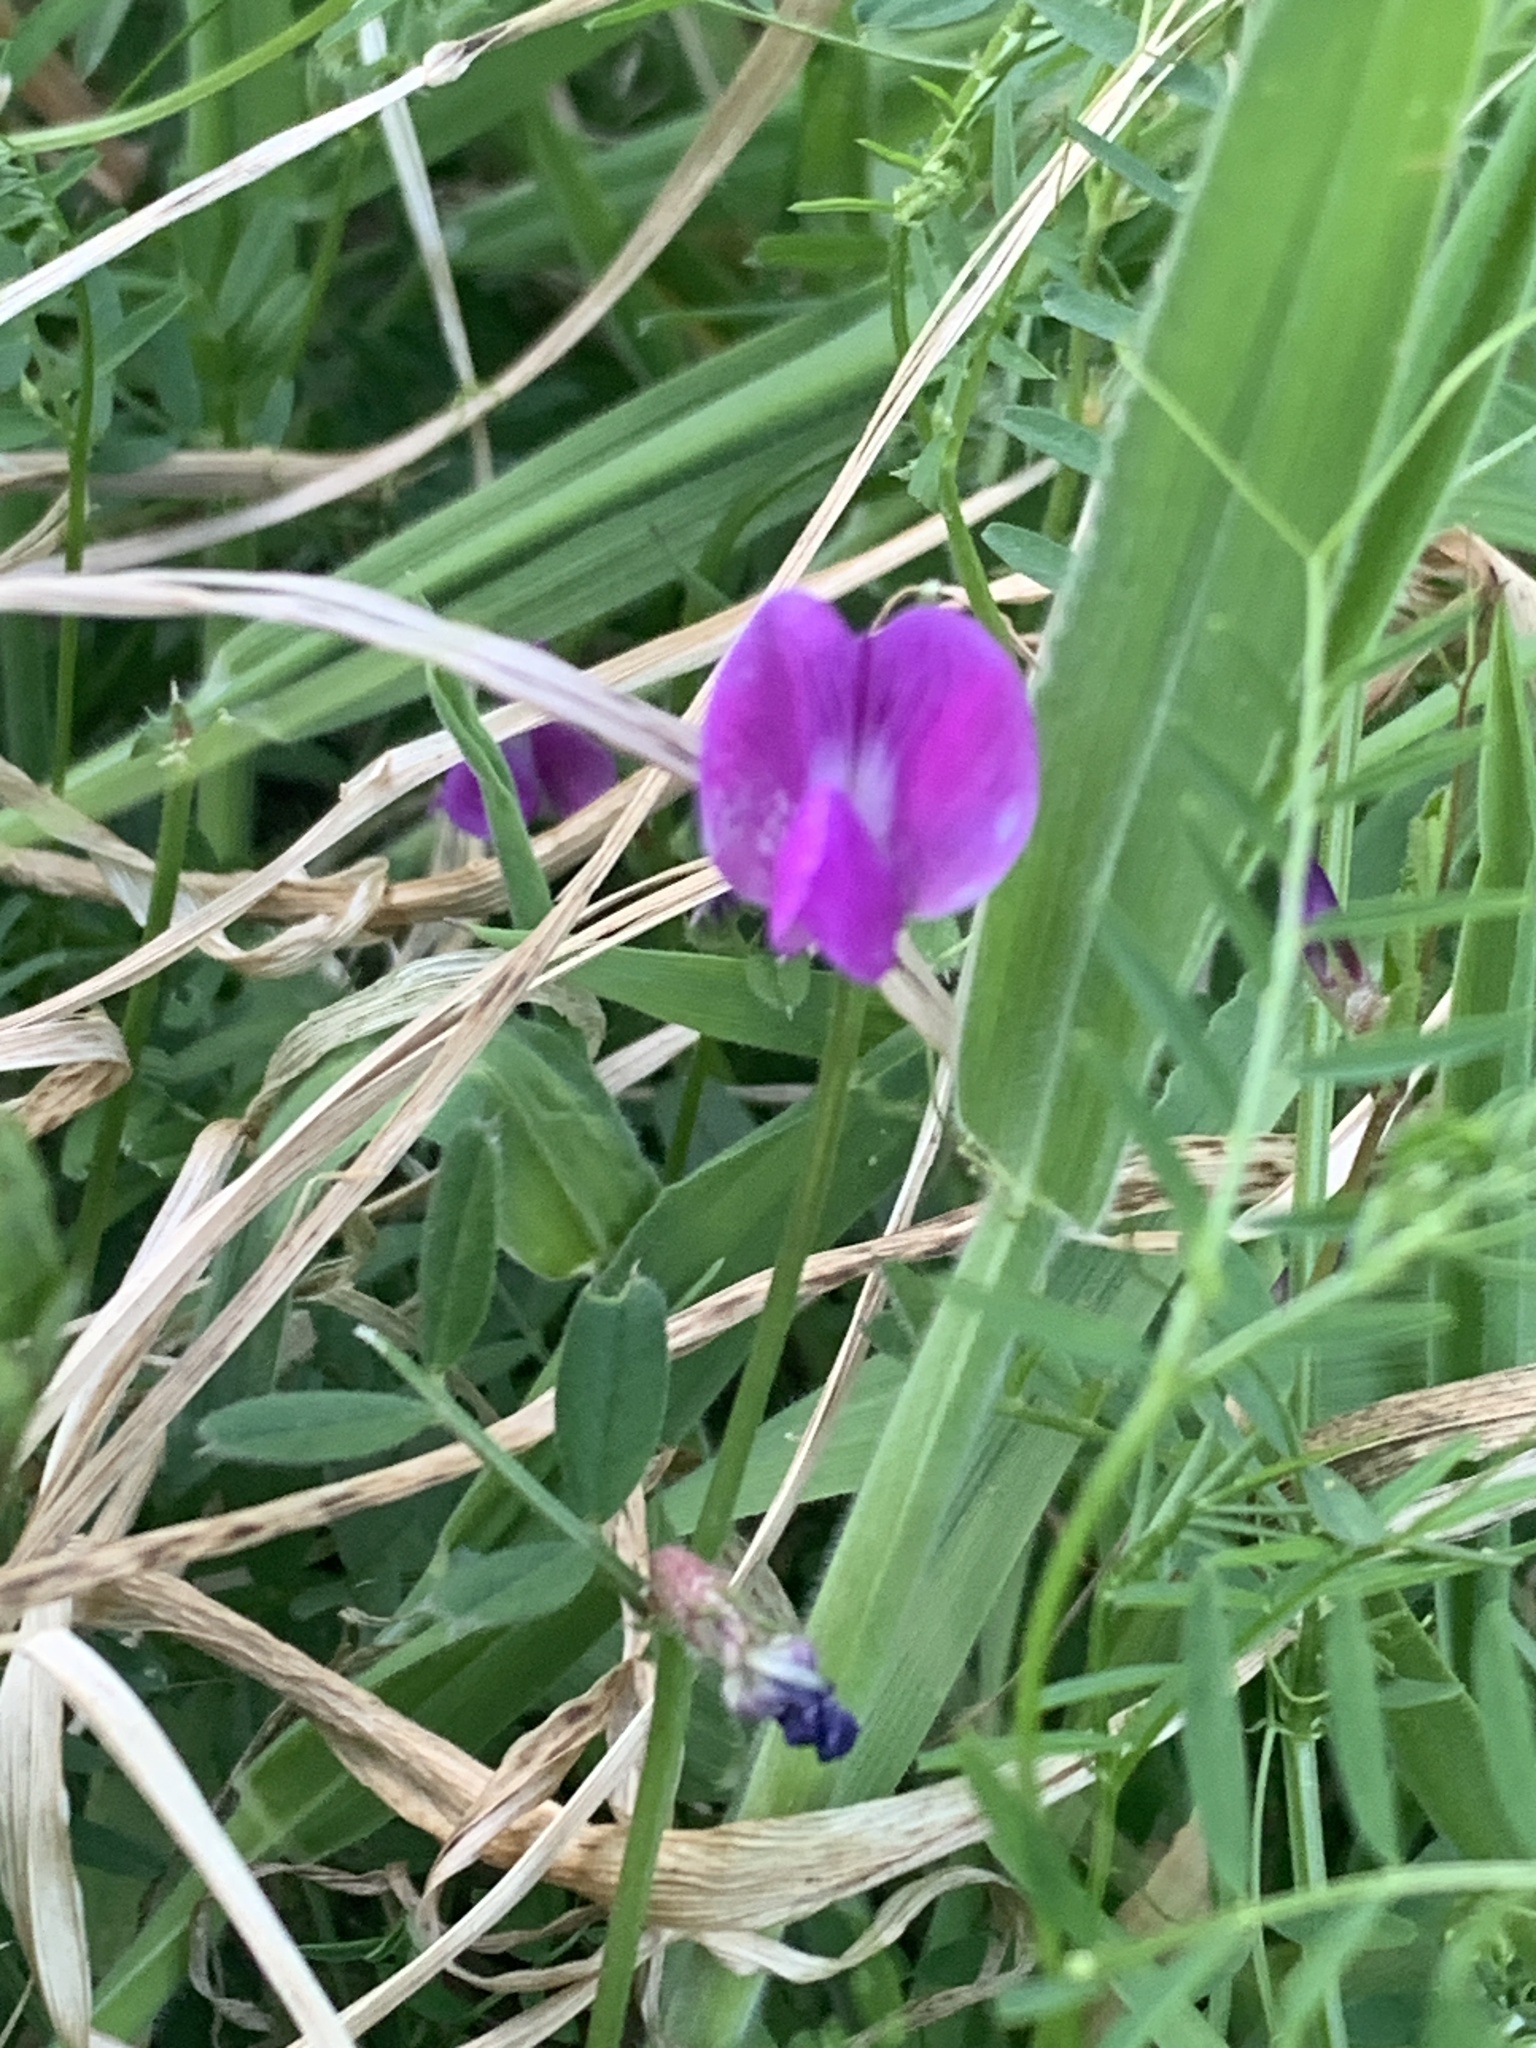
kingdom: Plantae
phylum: Tracheophyta
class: Magnoliopsida
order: Fabales
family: Fabaceae
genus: Vicia
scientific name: Vicia sativa
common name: Garden vetch
